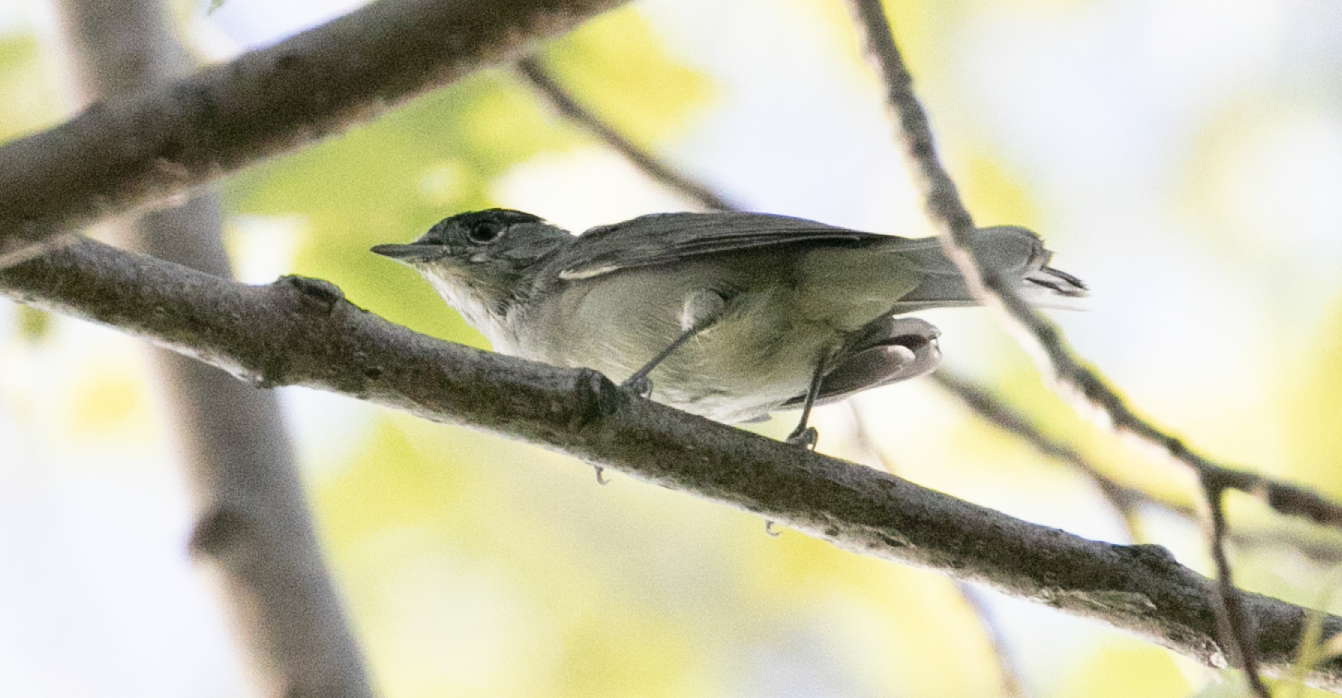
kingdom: Animalia
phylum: Chordata
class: Aves
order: Passeriformes
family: Sylviidae
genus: Sylvia
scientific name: Sylvia atricapilla
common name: Eurasian blackcap
